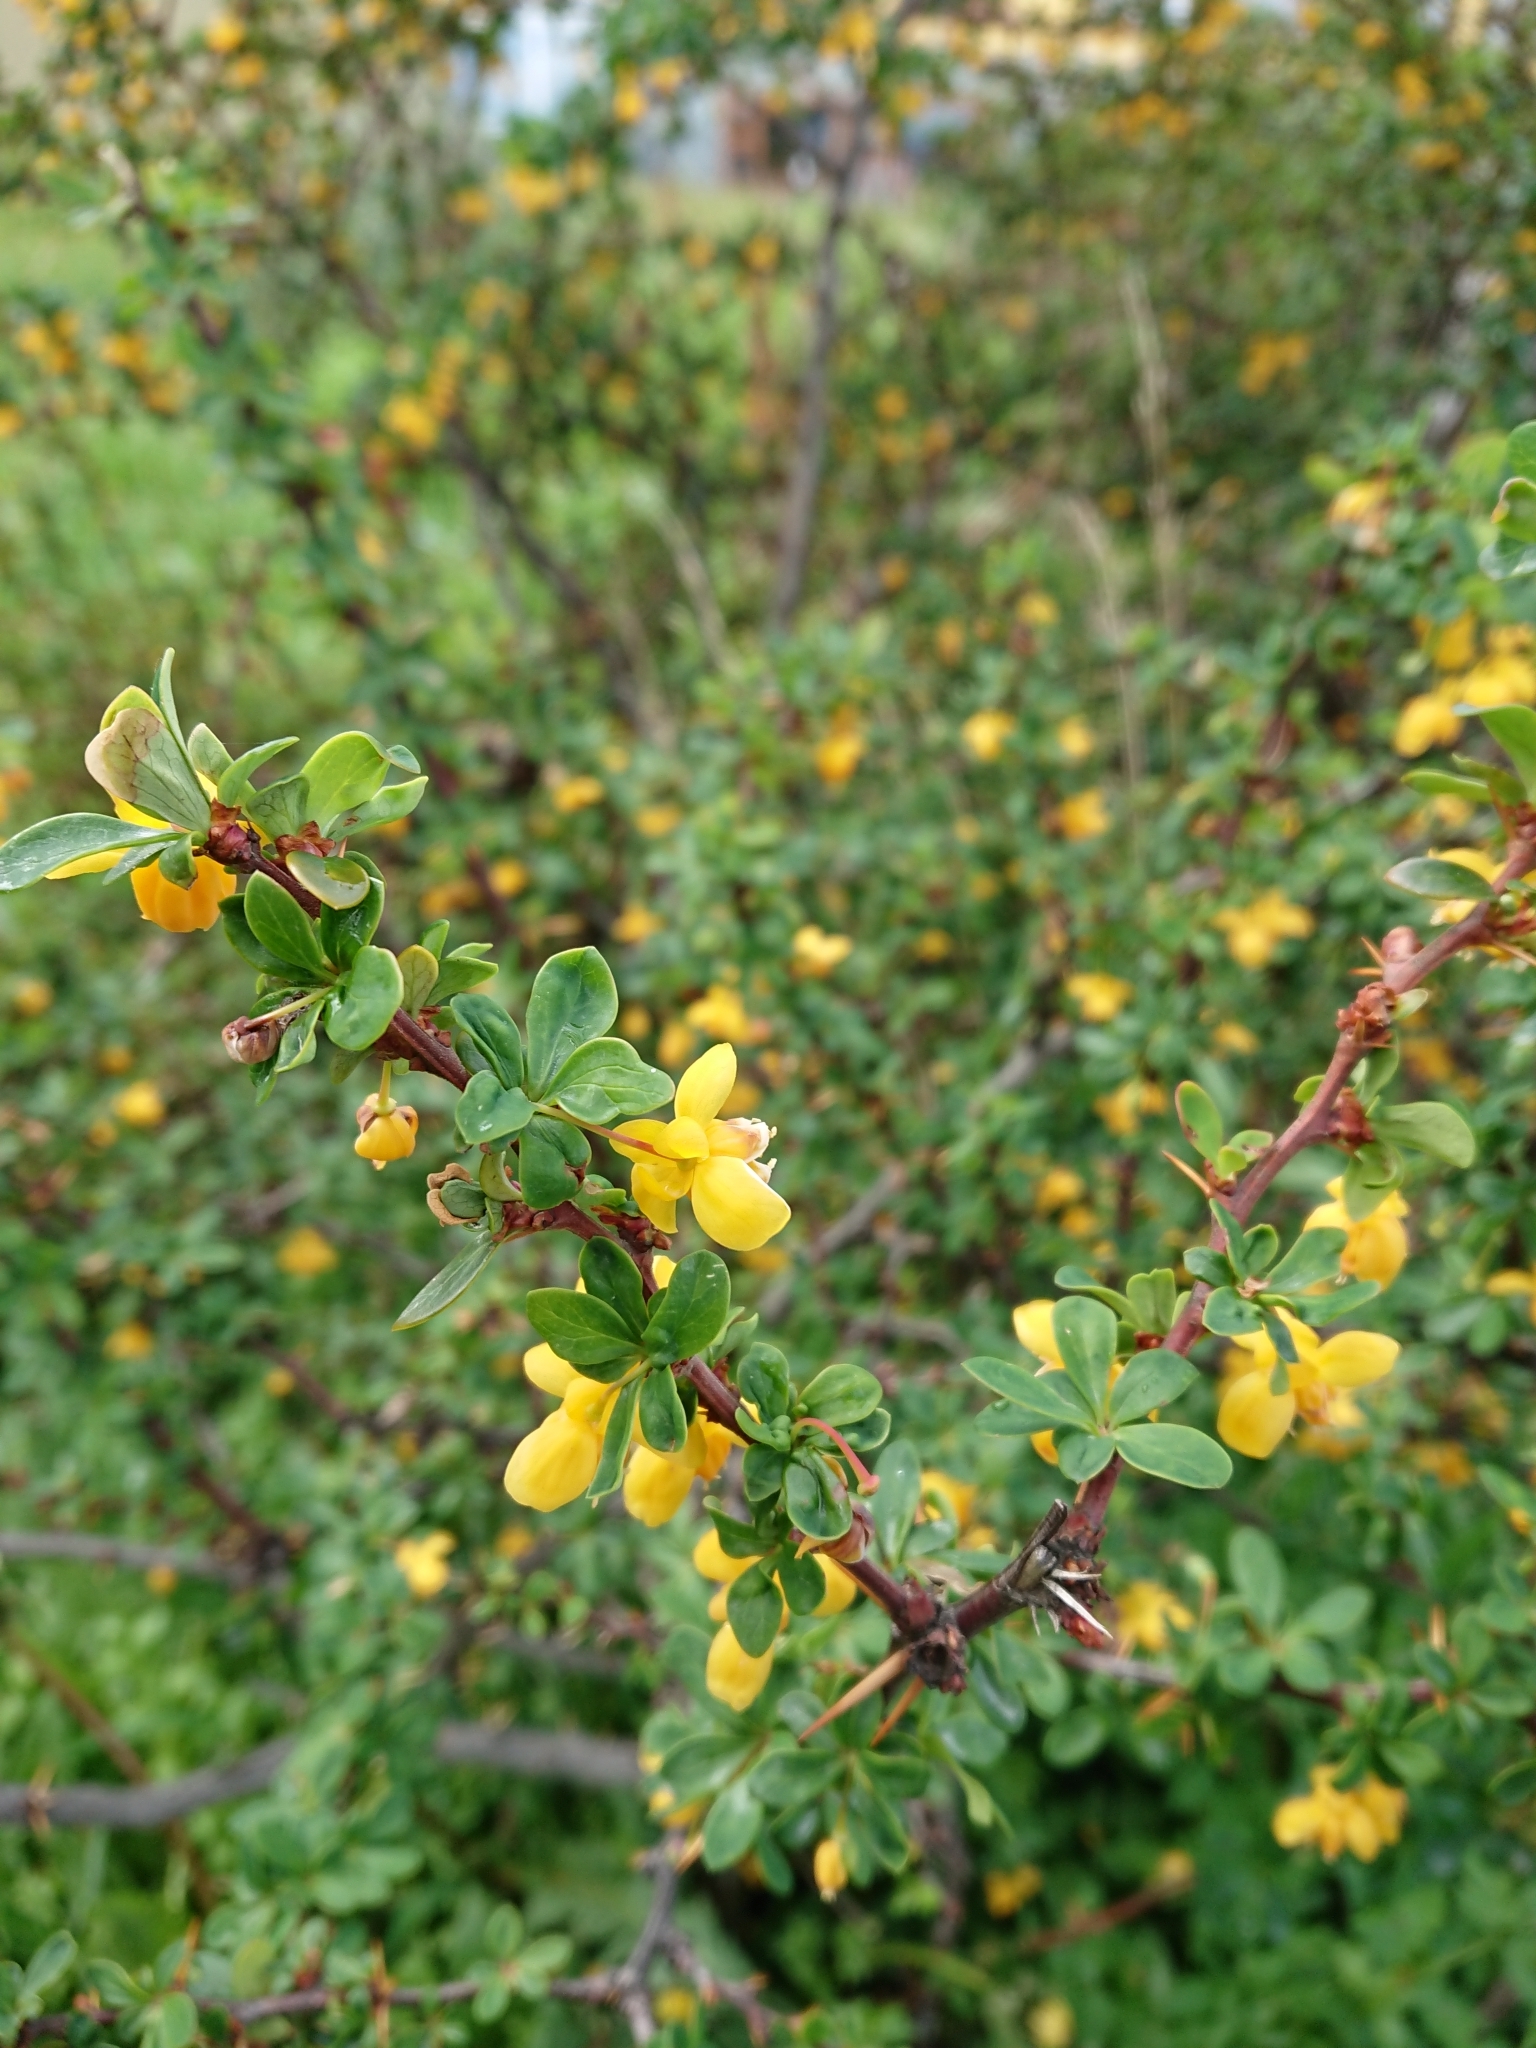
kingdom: Plantae
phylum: Tracheophyta
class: Magnoliopsida
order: Ranunculales
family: Berberidaceae
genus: Berberis
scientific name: Berberis microphylla
